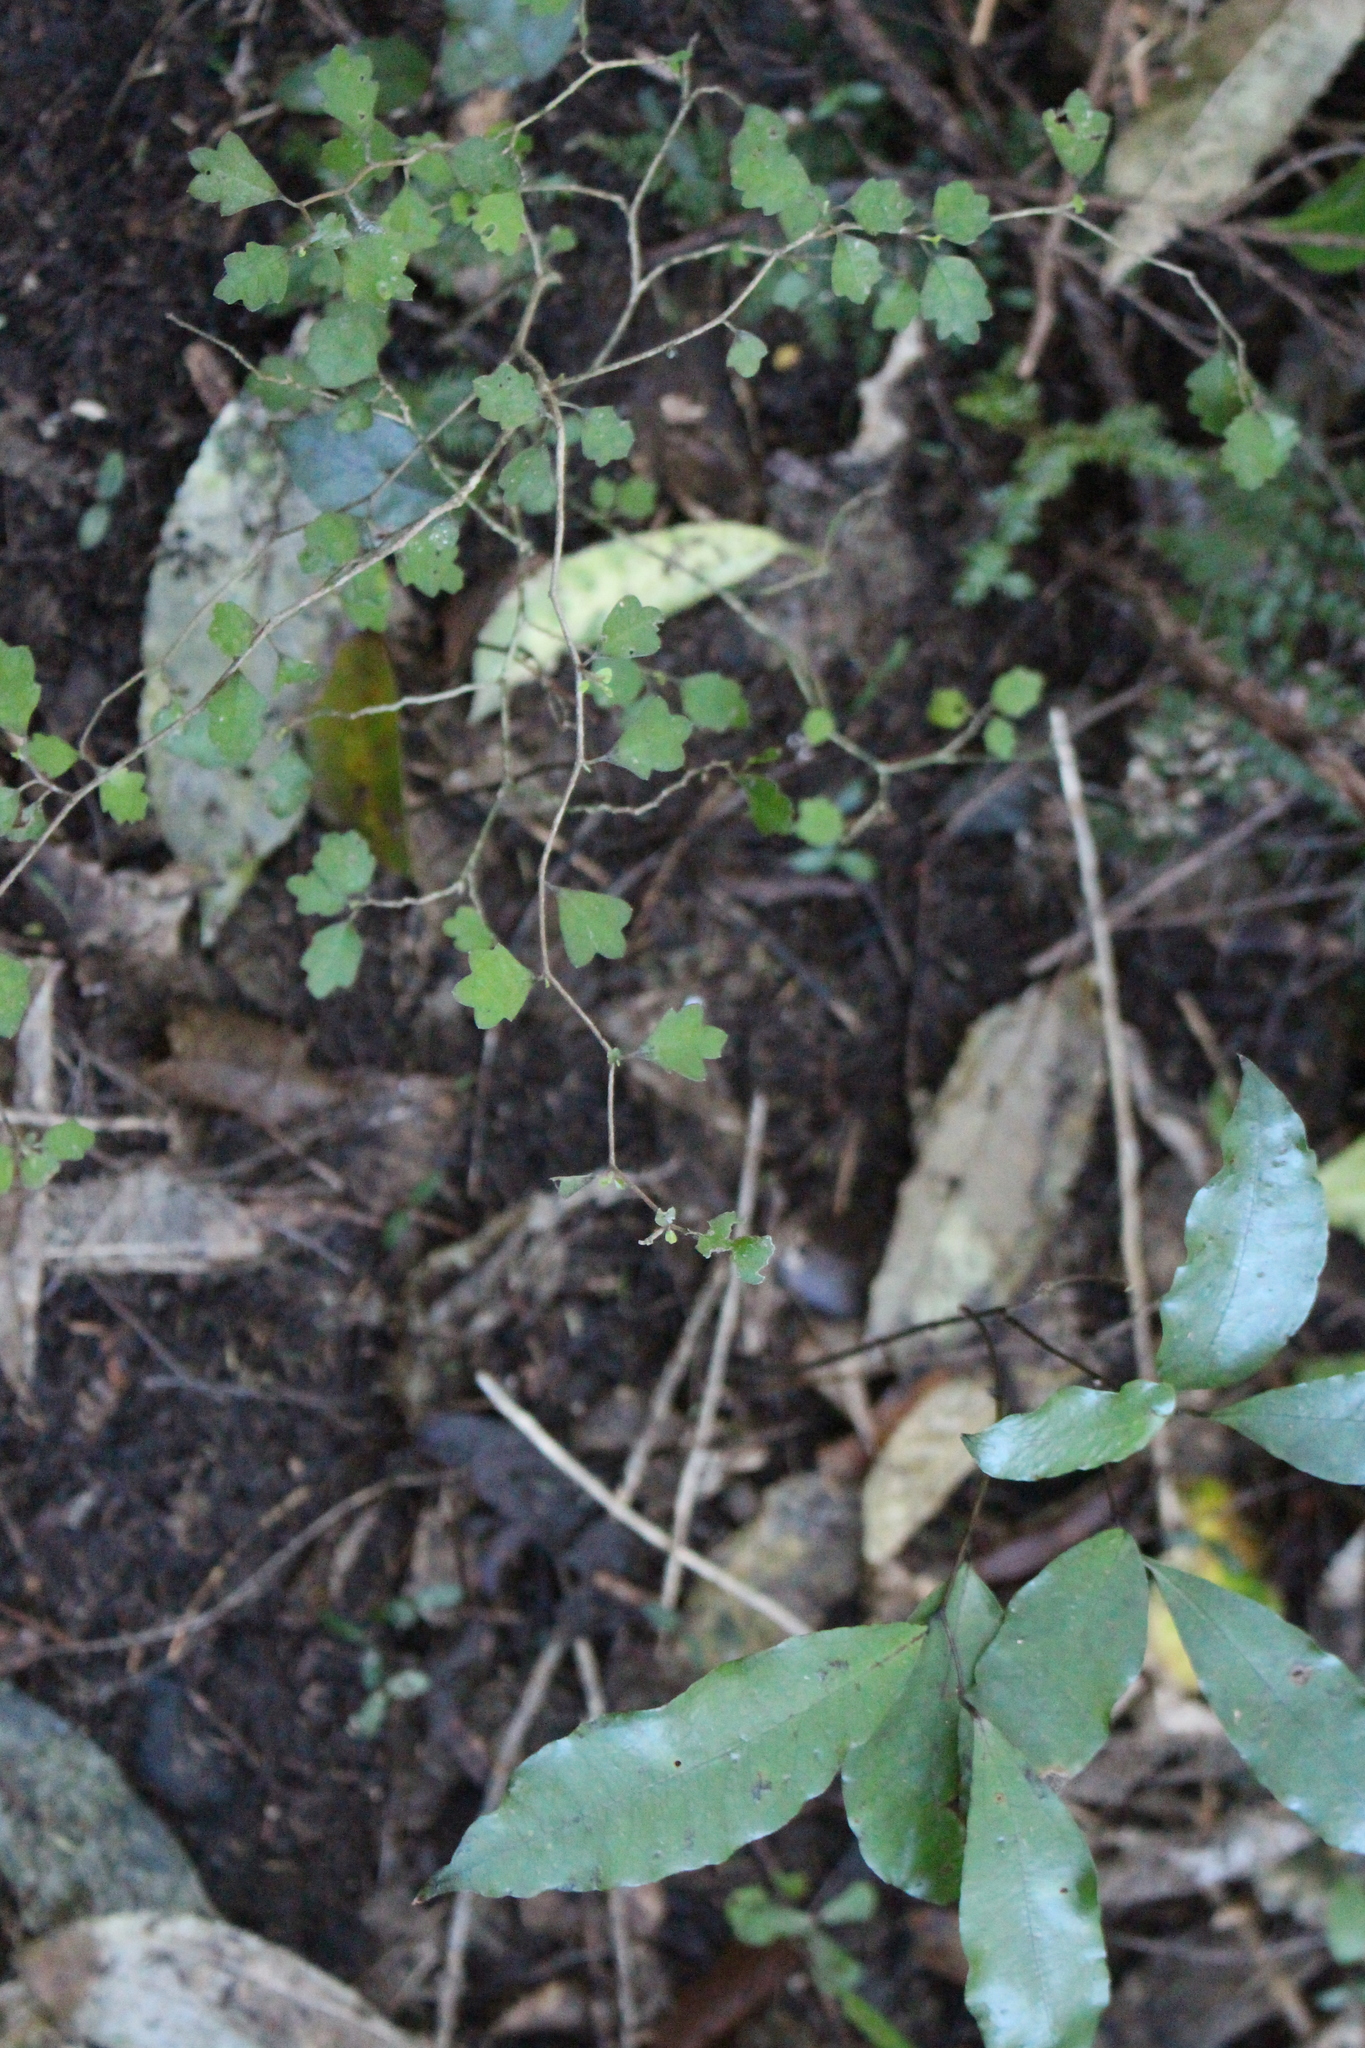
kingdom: Plantae
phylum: Tracheophyta
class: Magnoliopsida
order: Apiales
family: Pennantiaceae
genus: Pennantia
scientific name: Pennantia corymbosa
